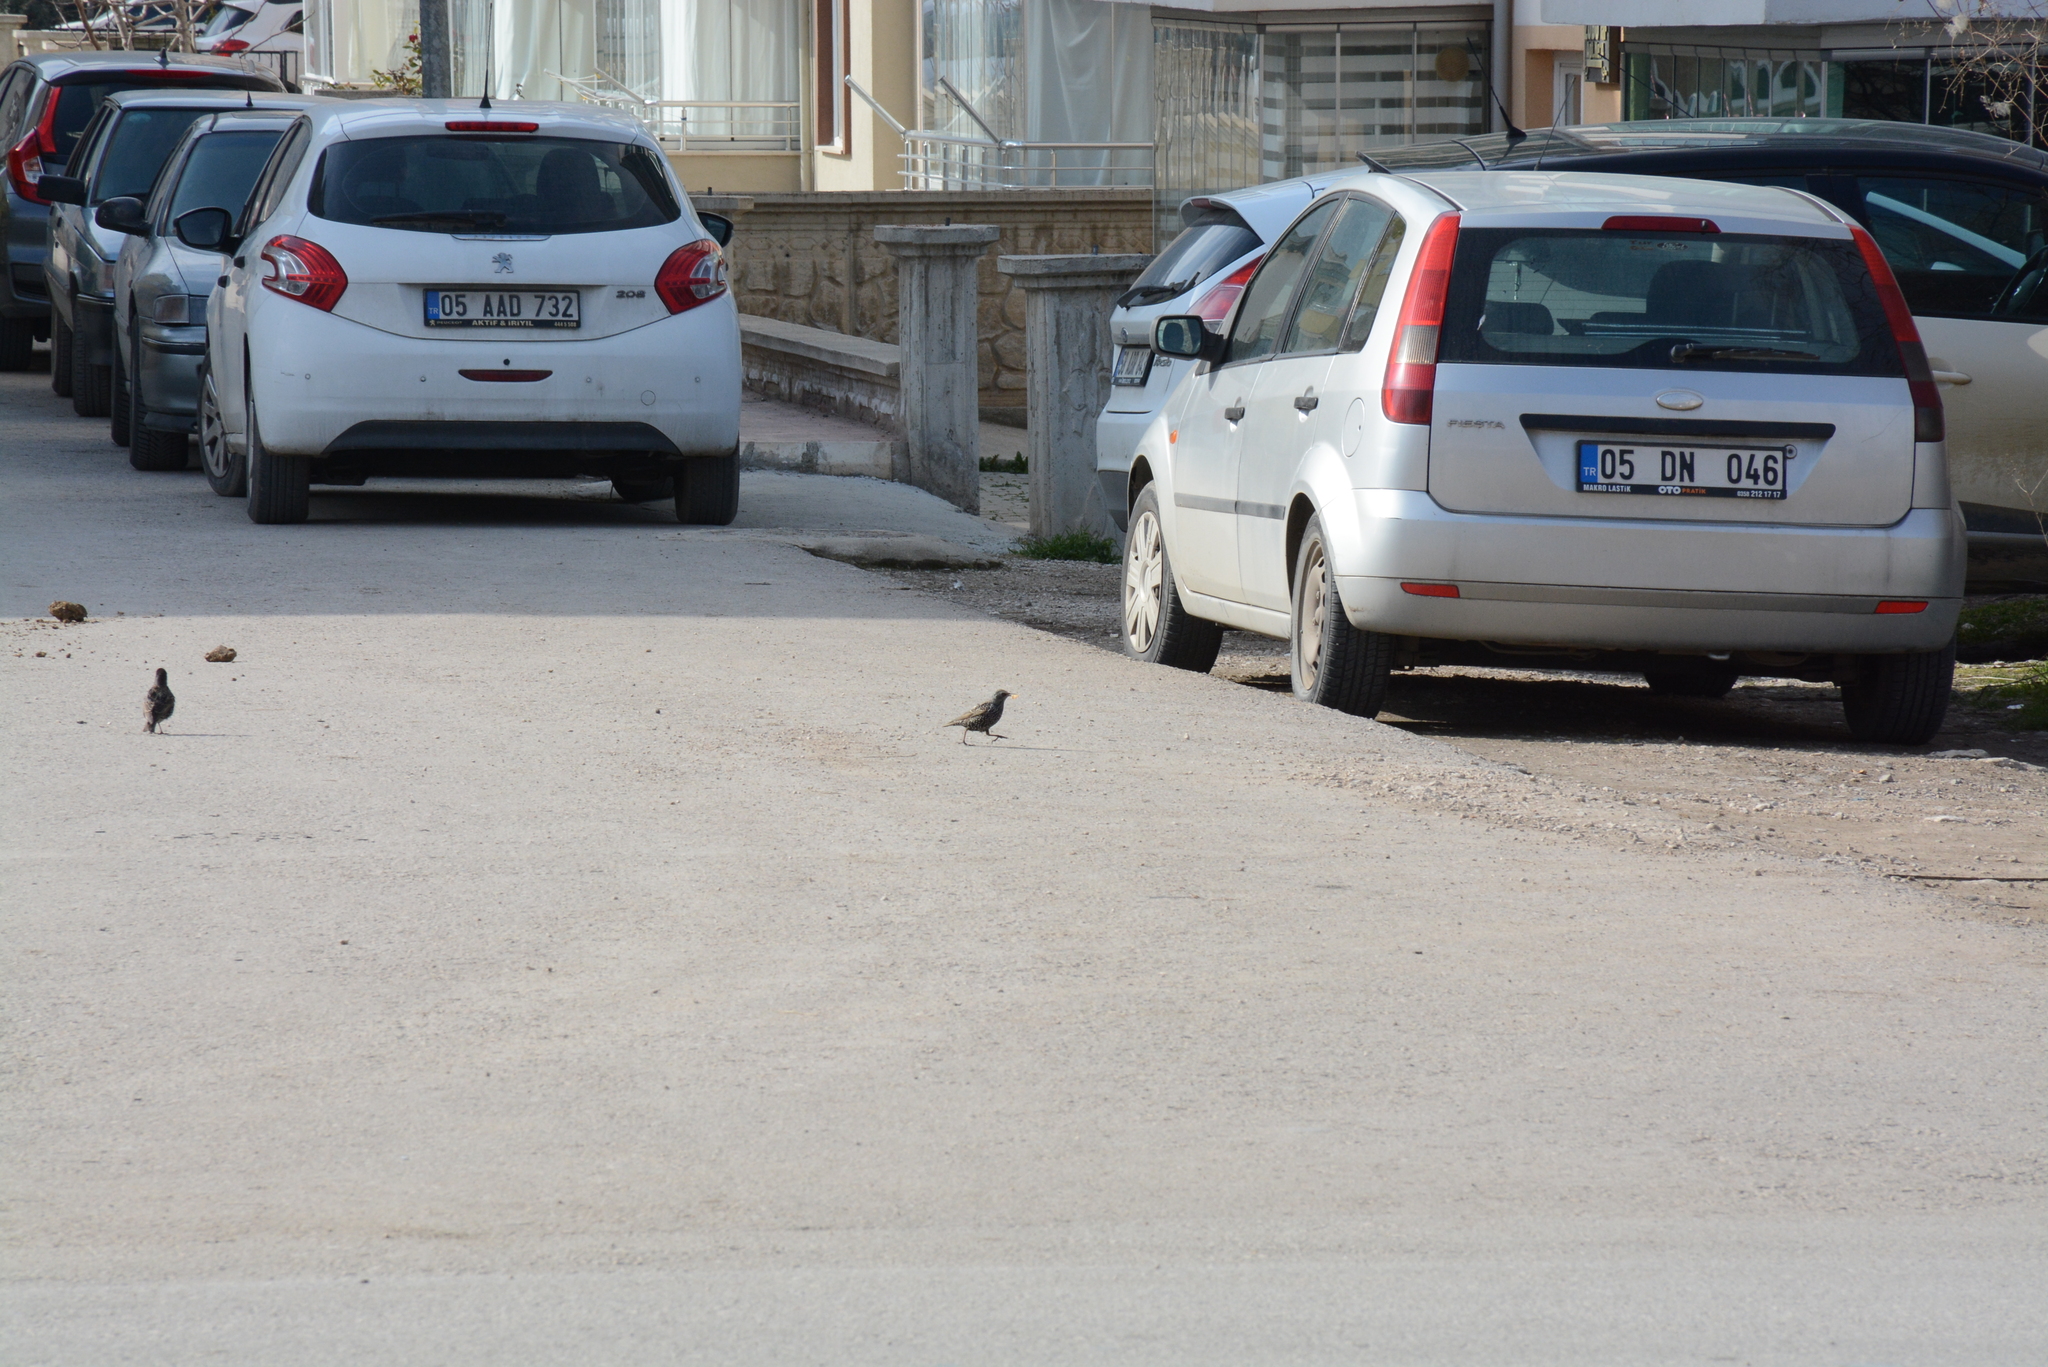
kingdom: Animalia
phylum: Chordata
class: Aves
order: Passeriformes
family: Sturnidae
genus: Sturnus
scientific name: Sturnus vulgaris
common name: Common starling
